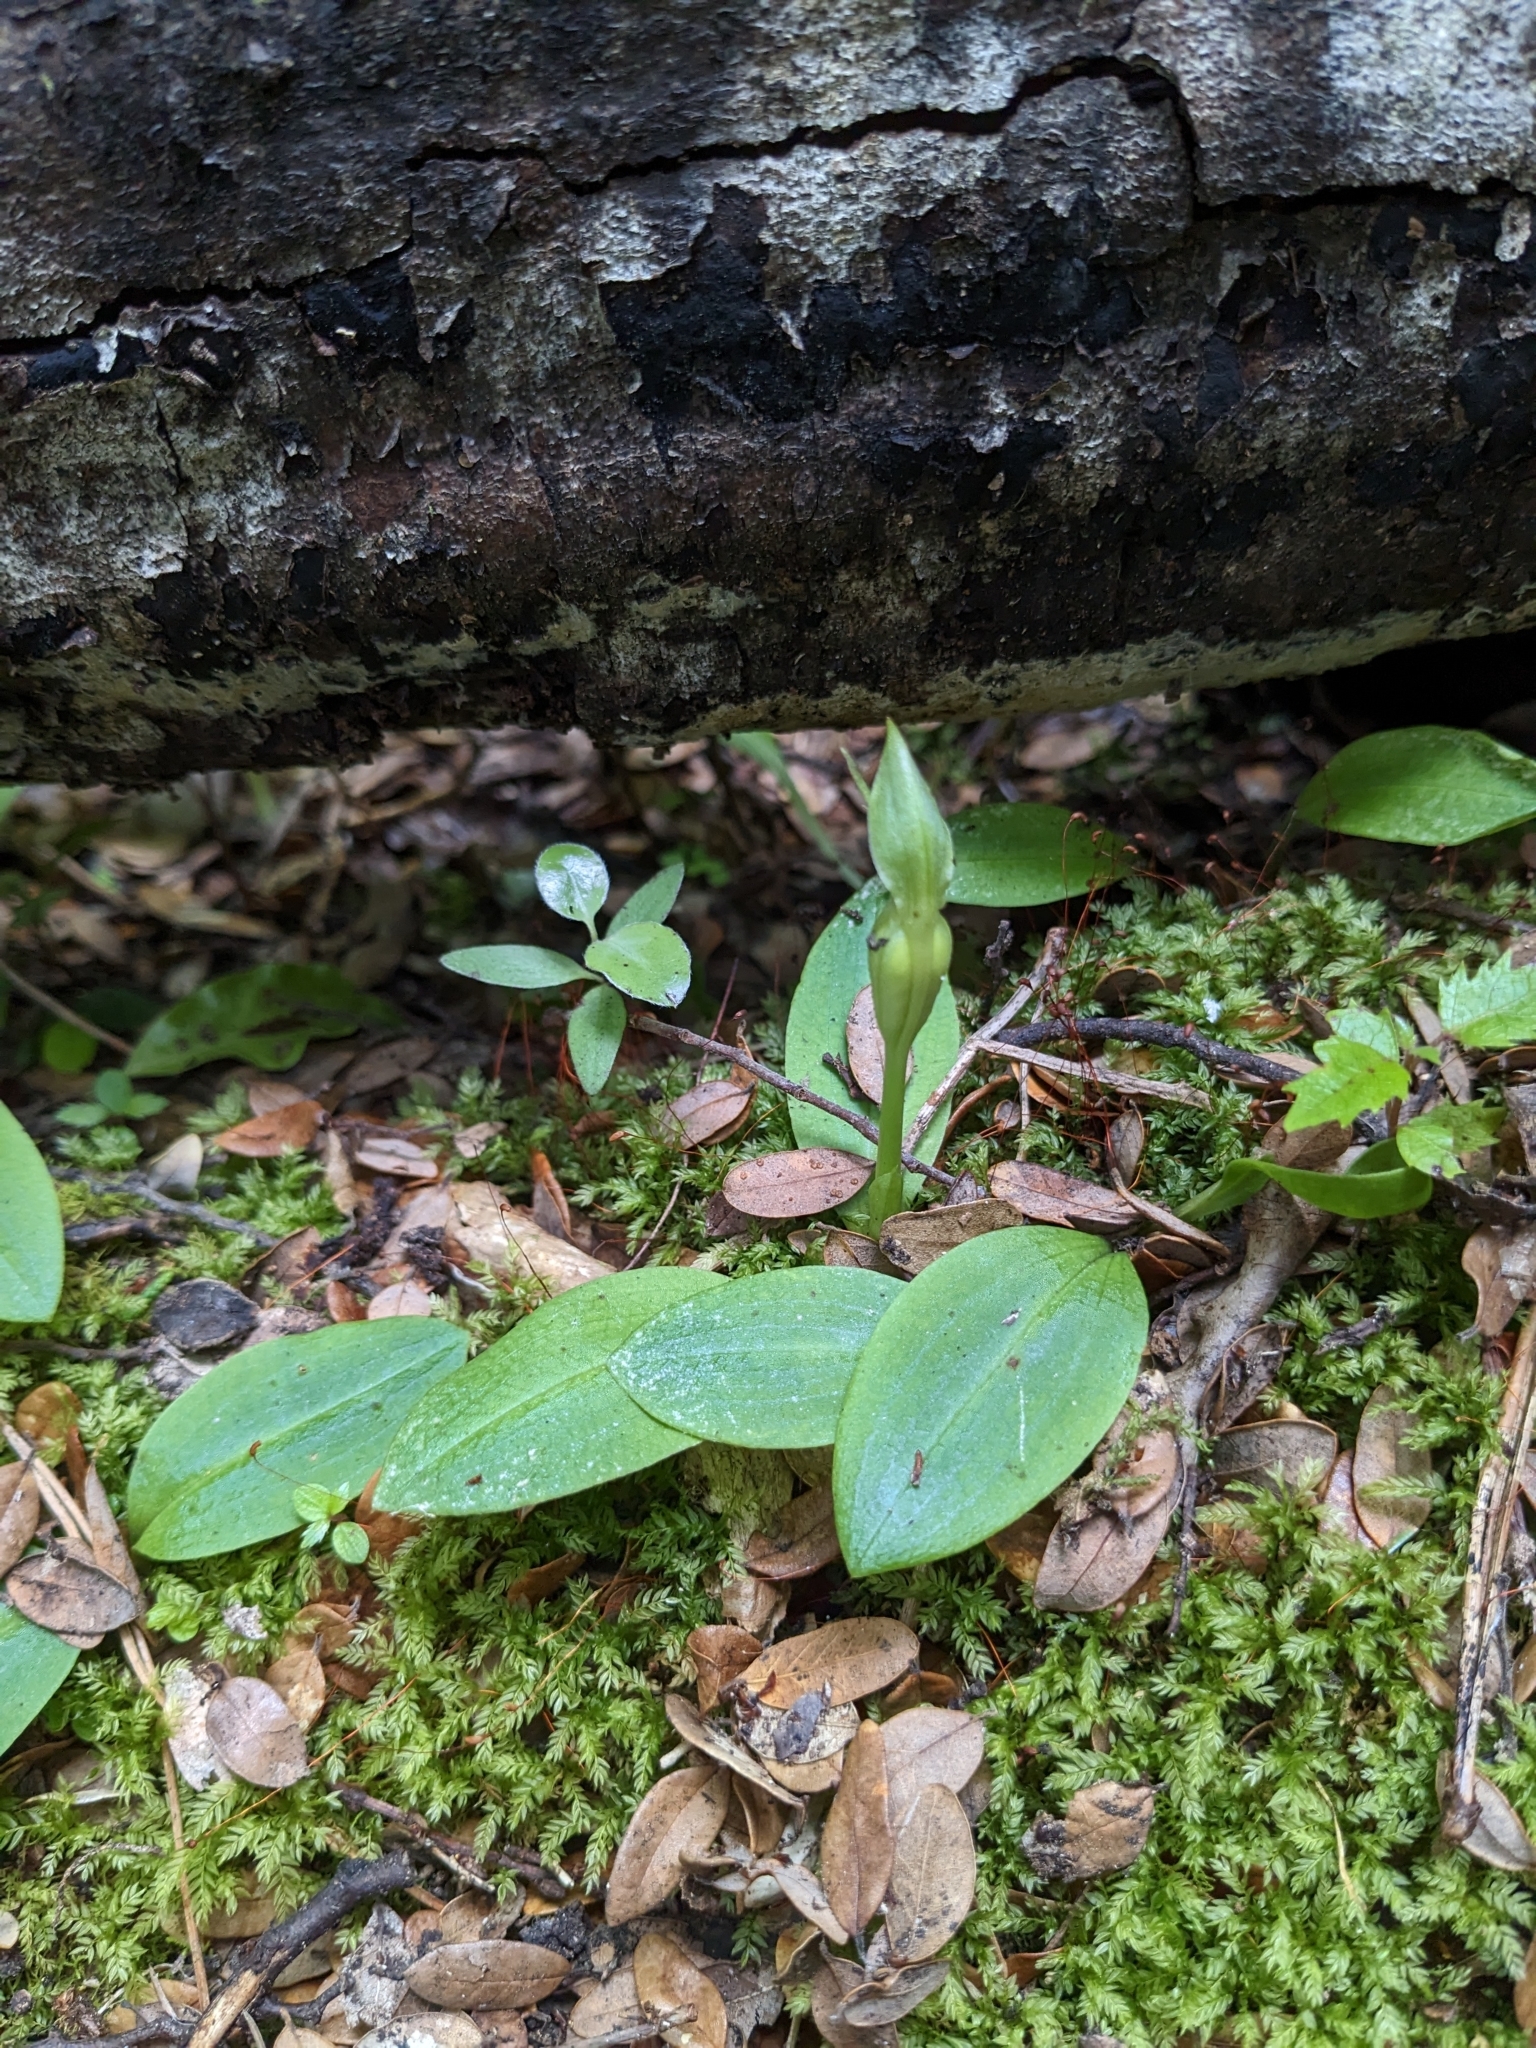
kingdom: Plantae
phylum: Tracheophyta
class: Liliopsida
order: Asparagales
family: Orchidaceae
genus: Chiloglottis
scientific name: Chiloglottis cornuta
